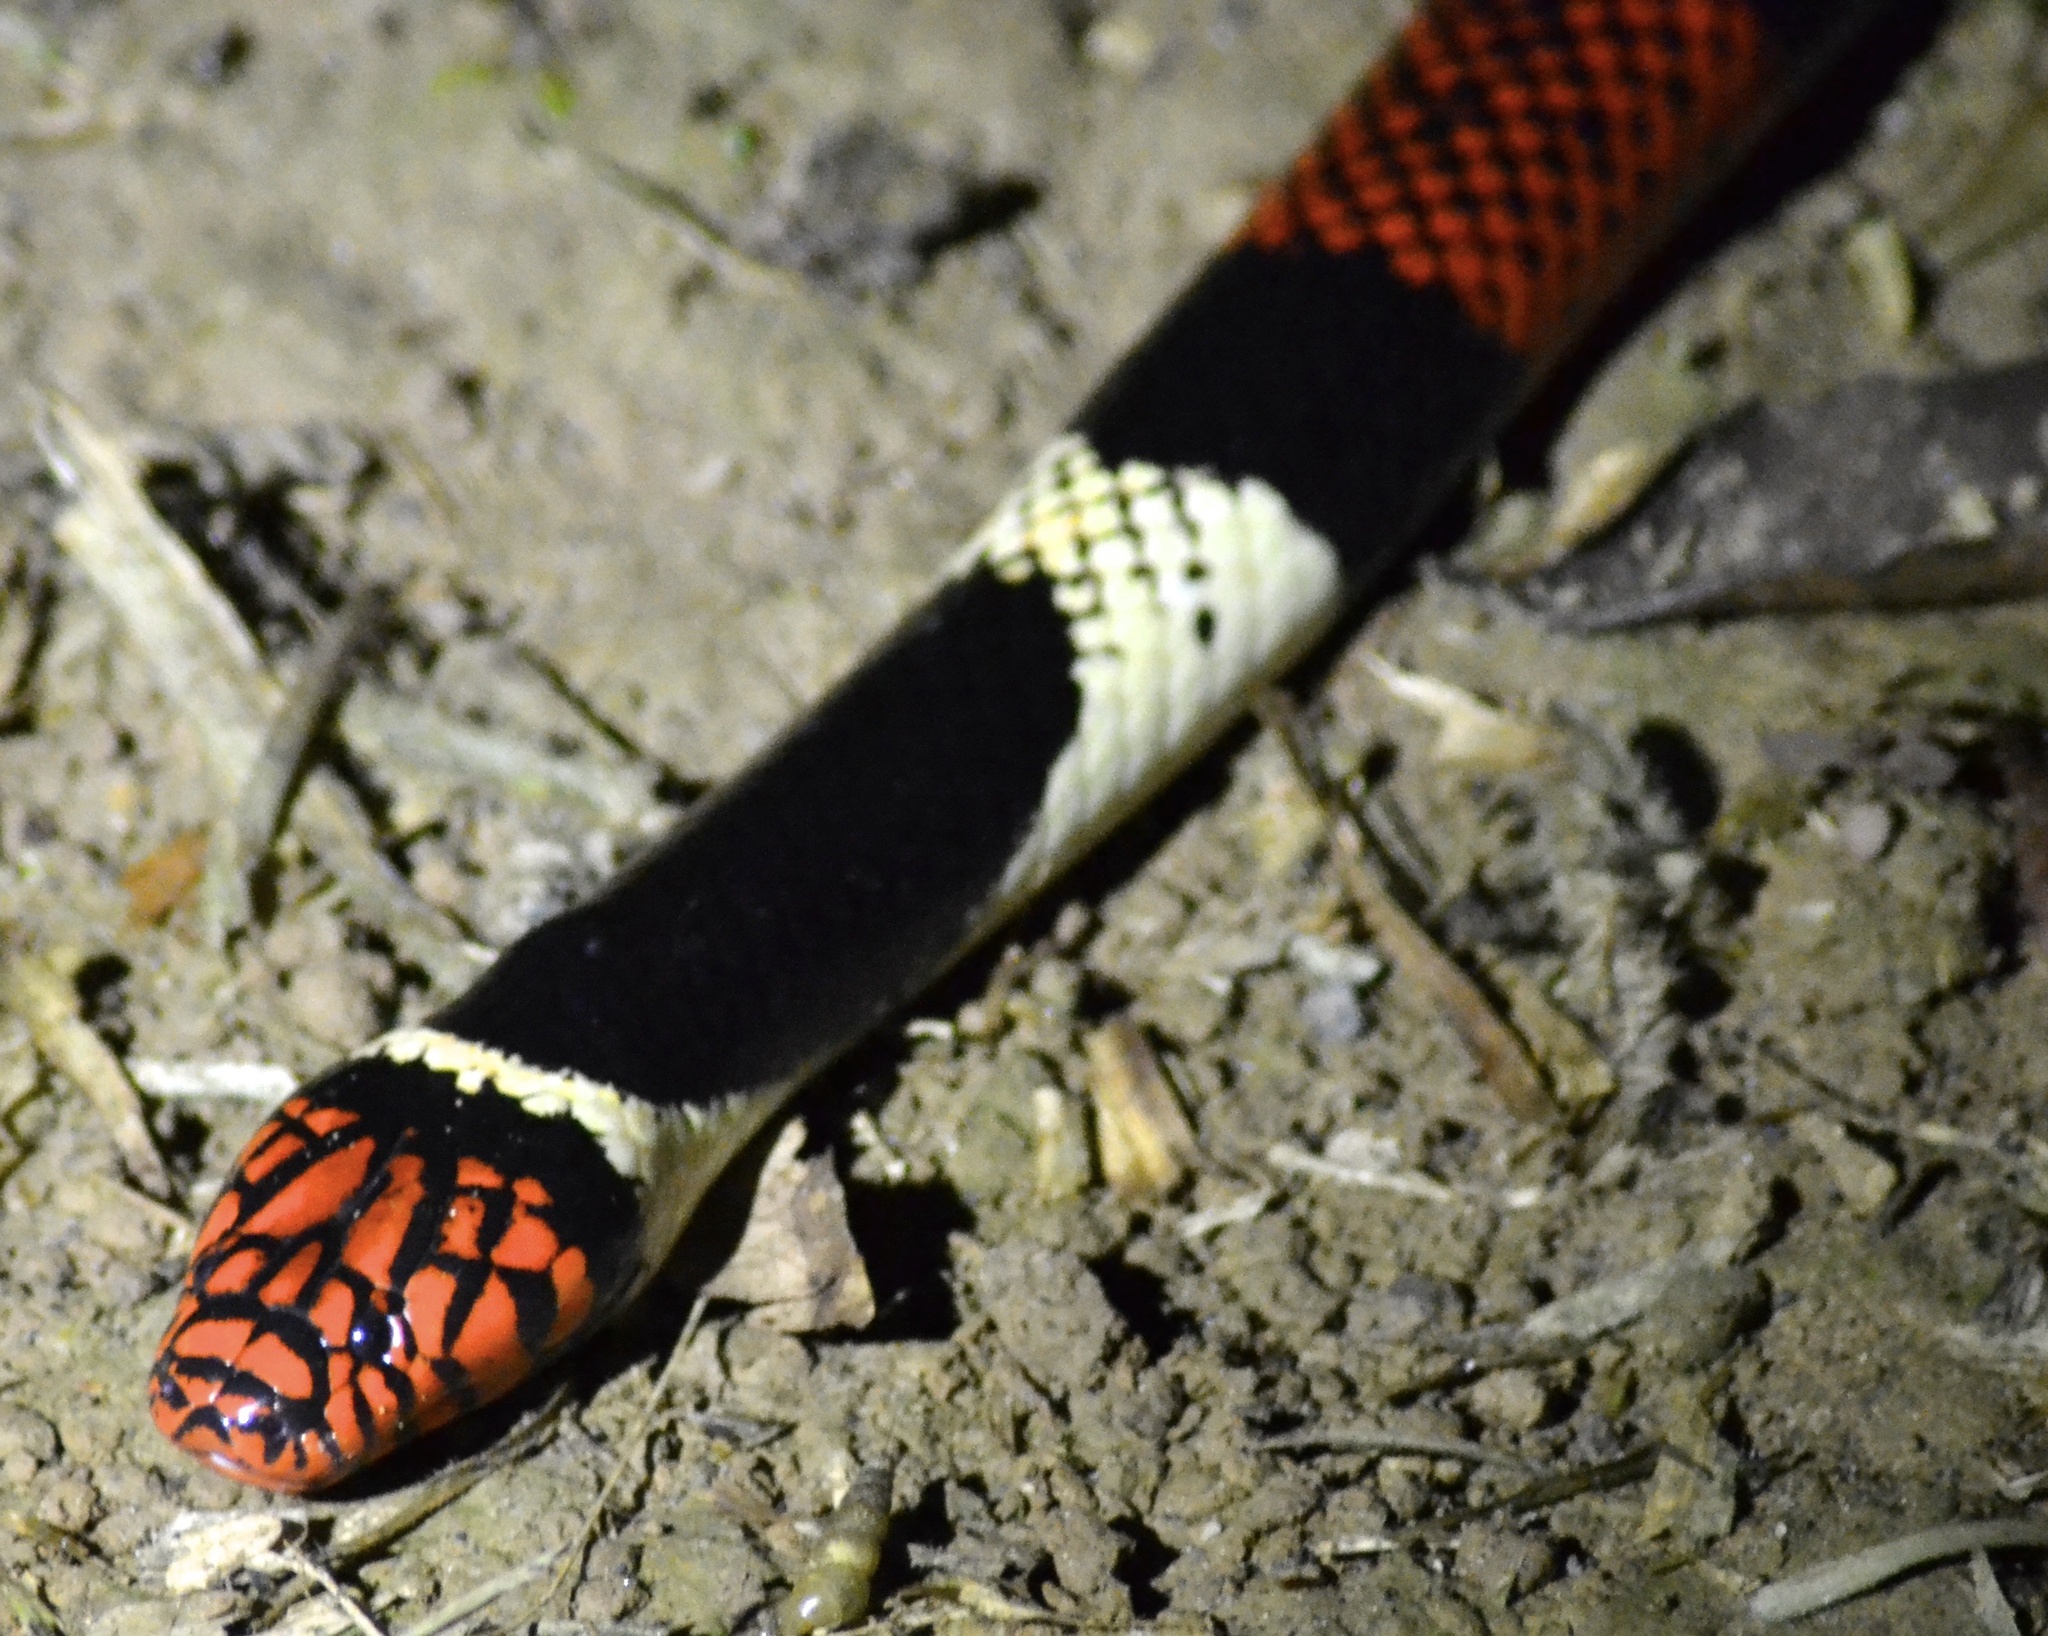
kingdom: Animalia
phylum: Chordata
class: Squamata
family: Elapidae
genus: Micrurus
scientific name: Micrurus surinamensis
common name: Aquatic coral snake
